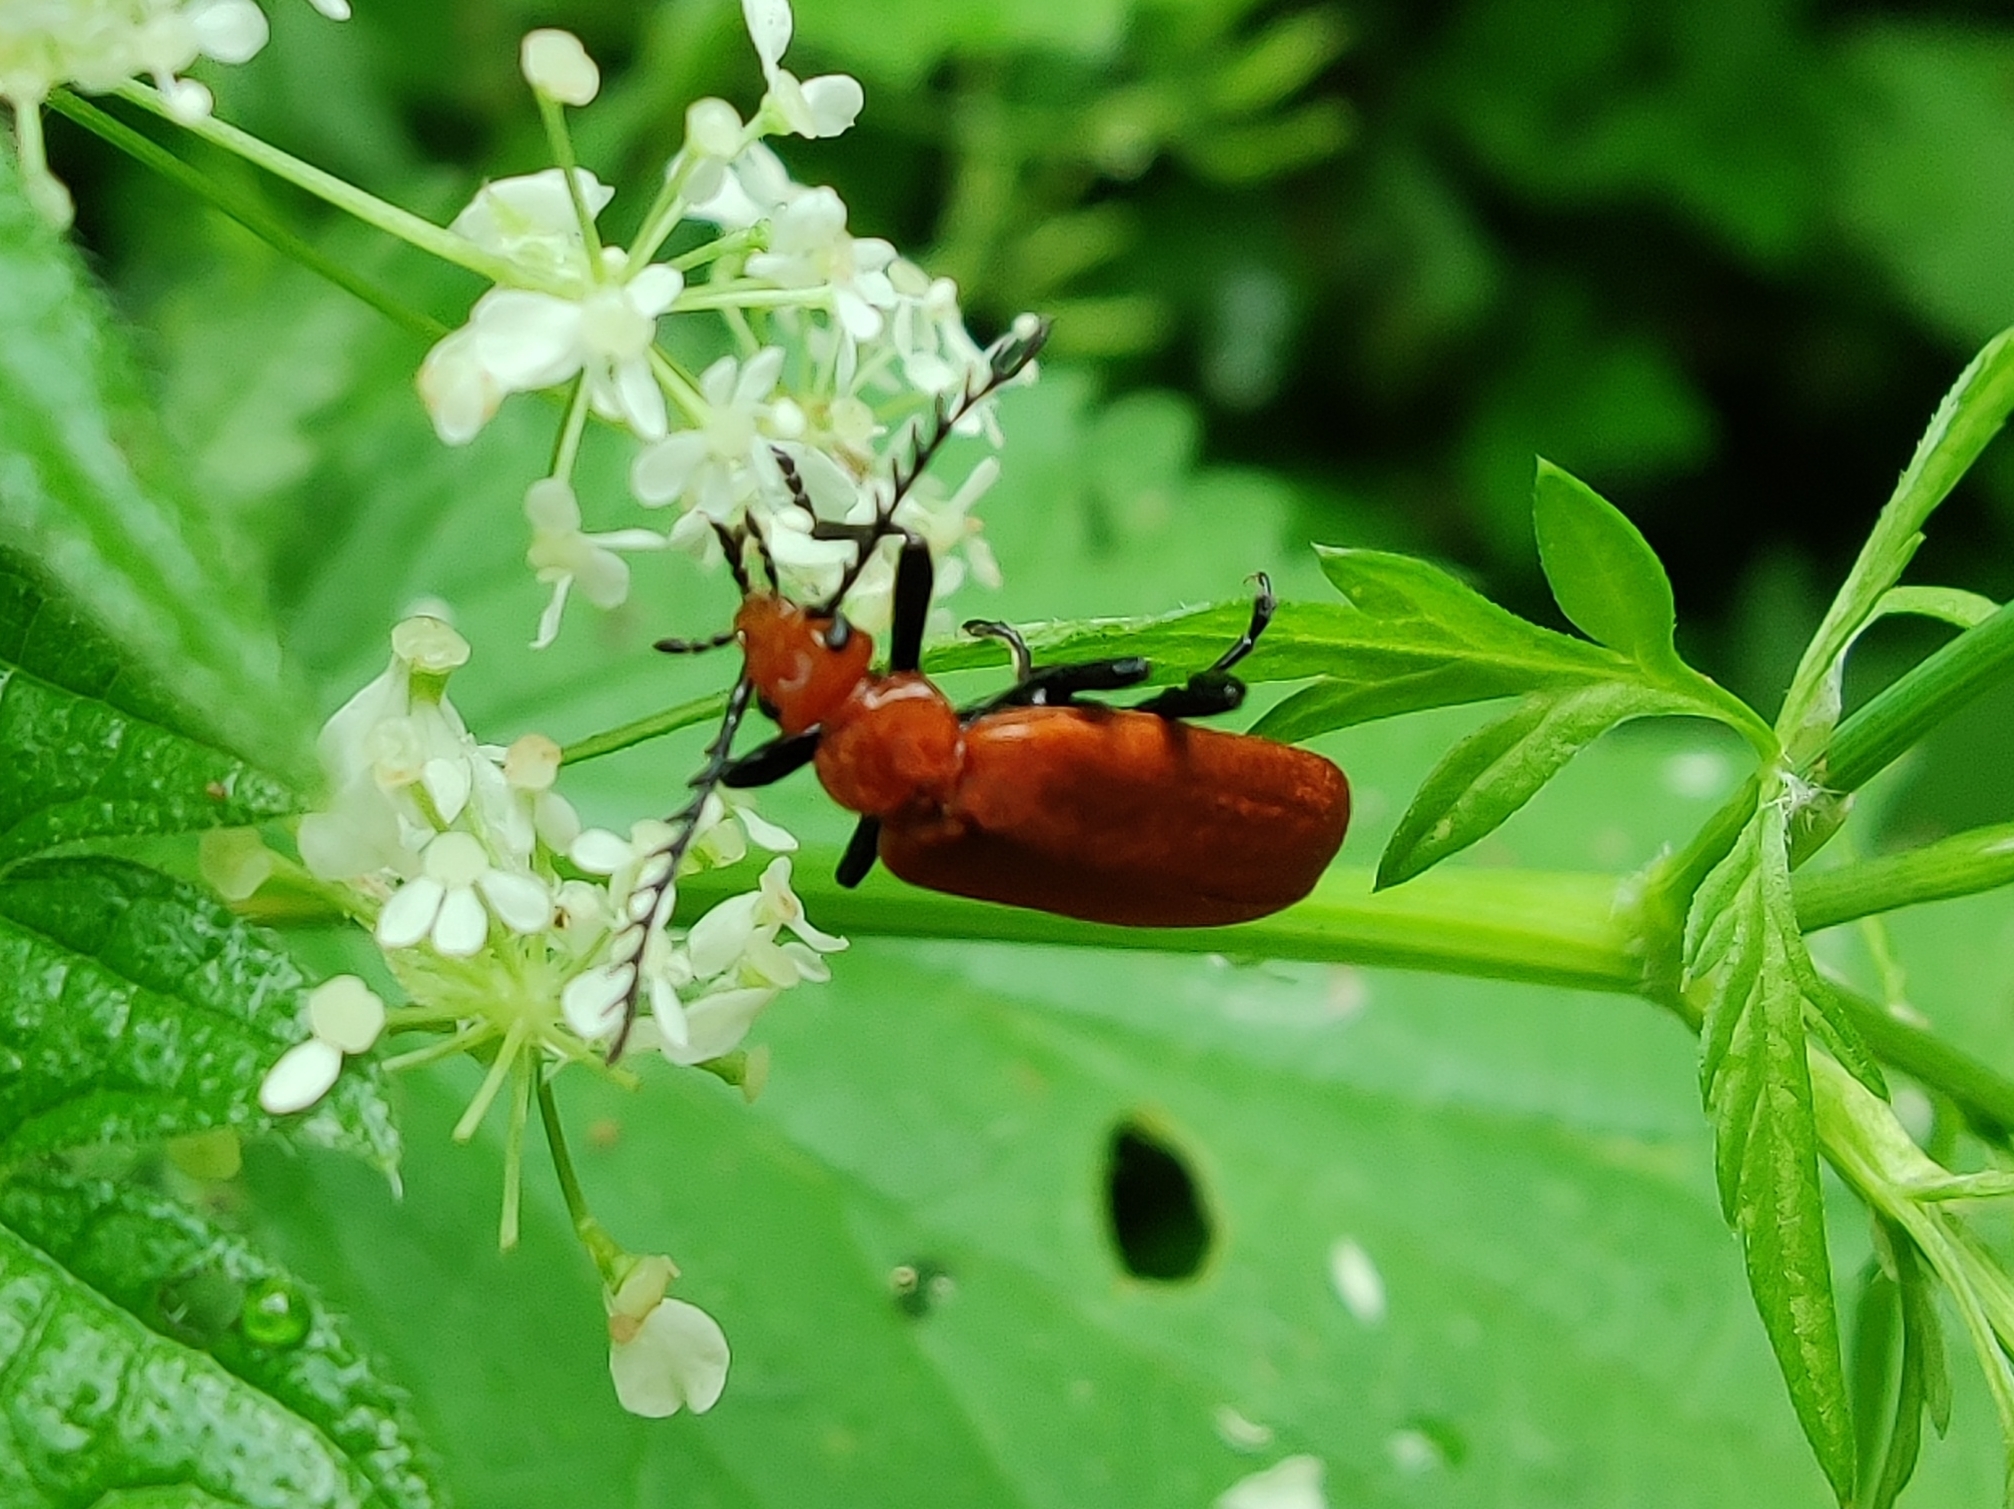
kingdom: Animalia
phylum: Arthropoda
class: Insecta
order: Coleoptera
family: Pyrochroidae
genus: Pyrochroa
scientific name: Pyrochroa serraticornis
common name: Red-headed cardinal beetle
